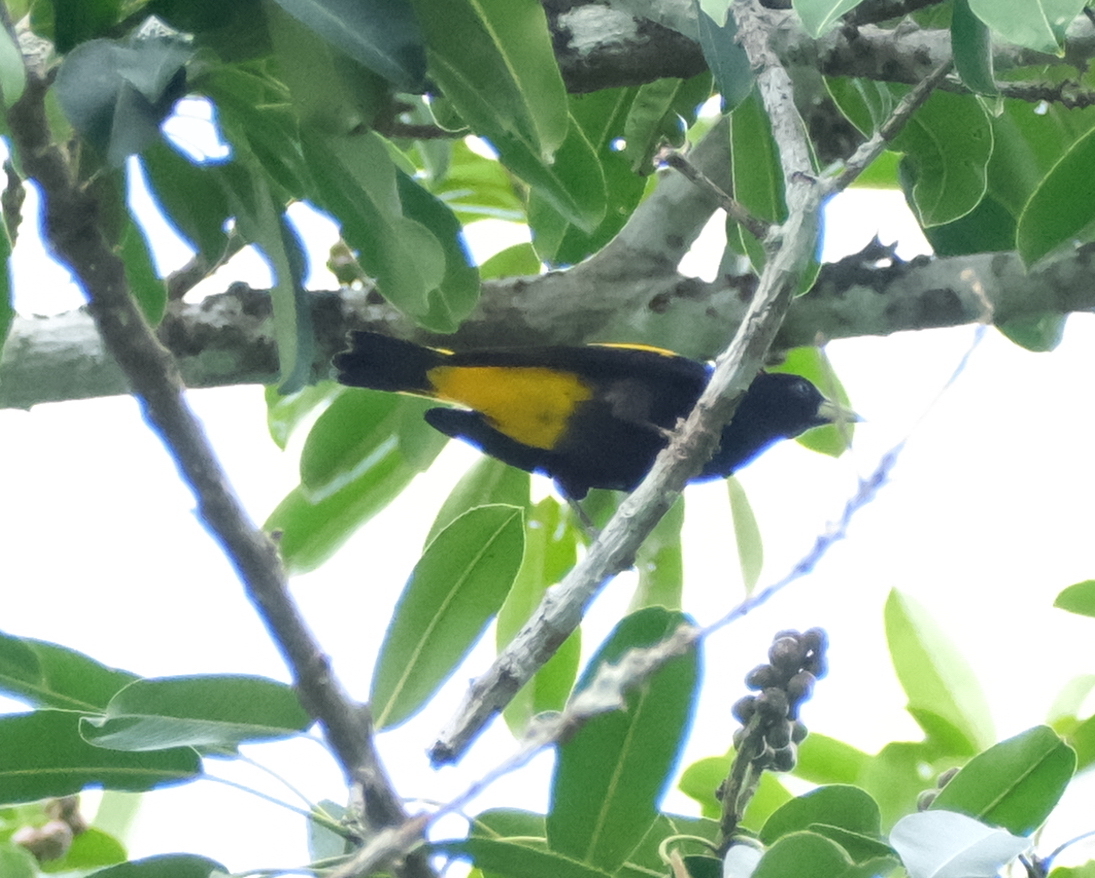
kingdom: Animalia
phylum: Chordata
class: Aves
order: Passeriformes
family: Icteridae
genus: Cacicus
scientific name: Cacicus cela
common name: Yellow-rumped cacique
